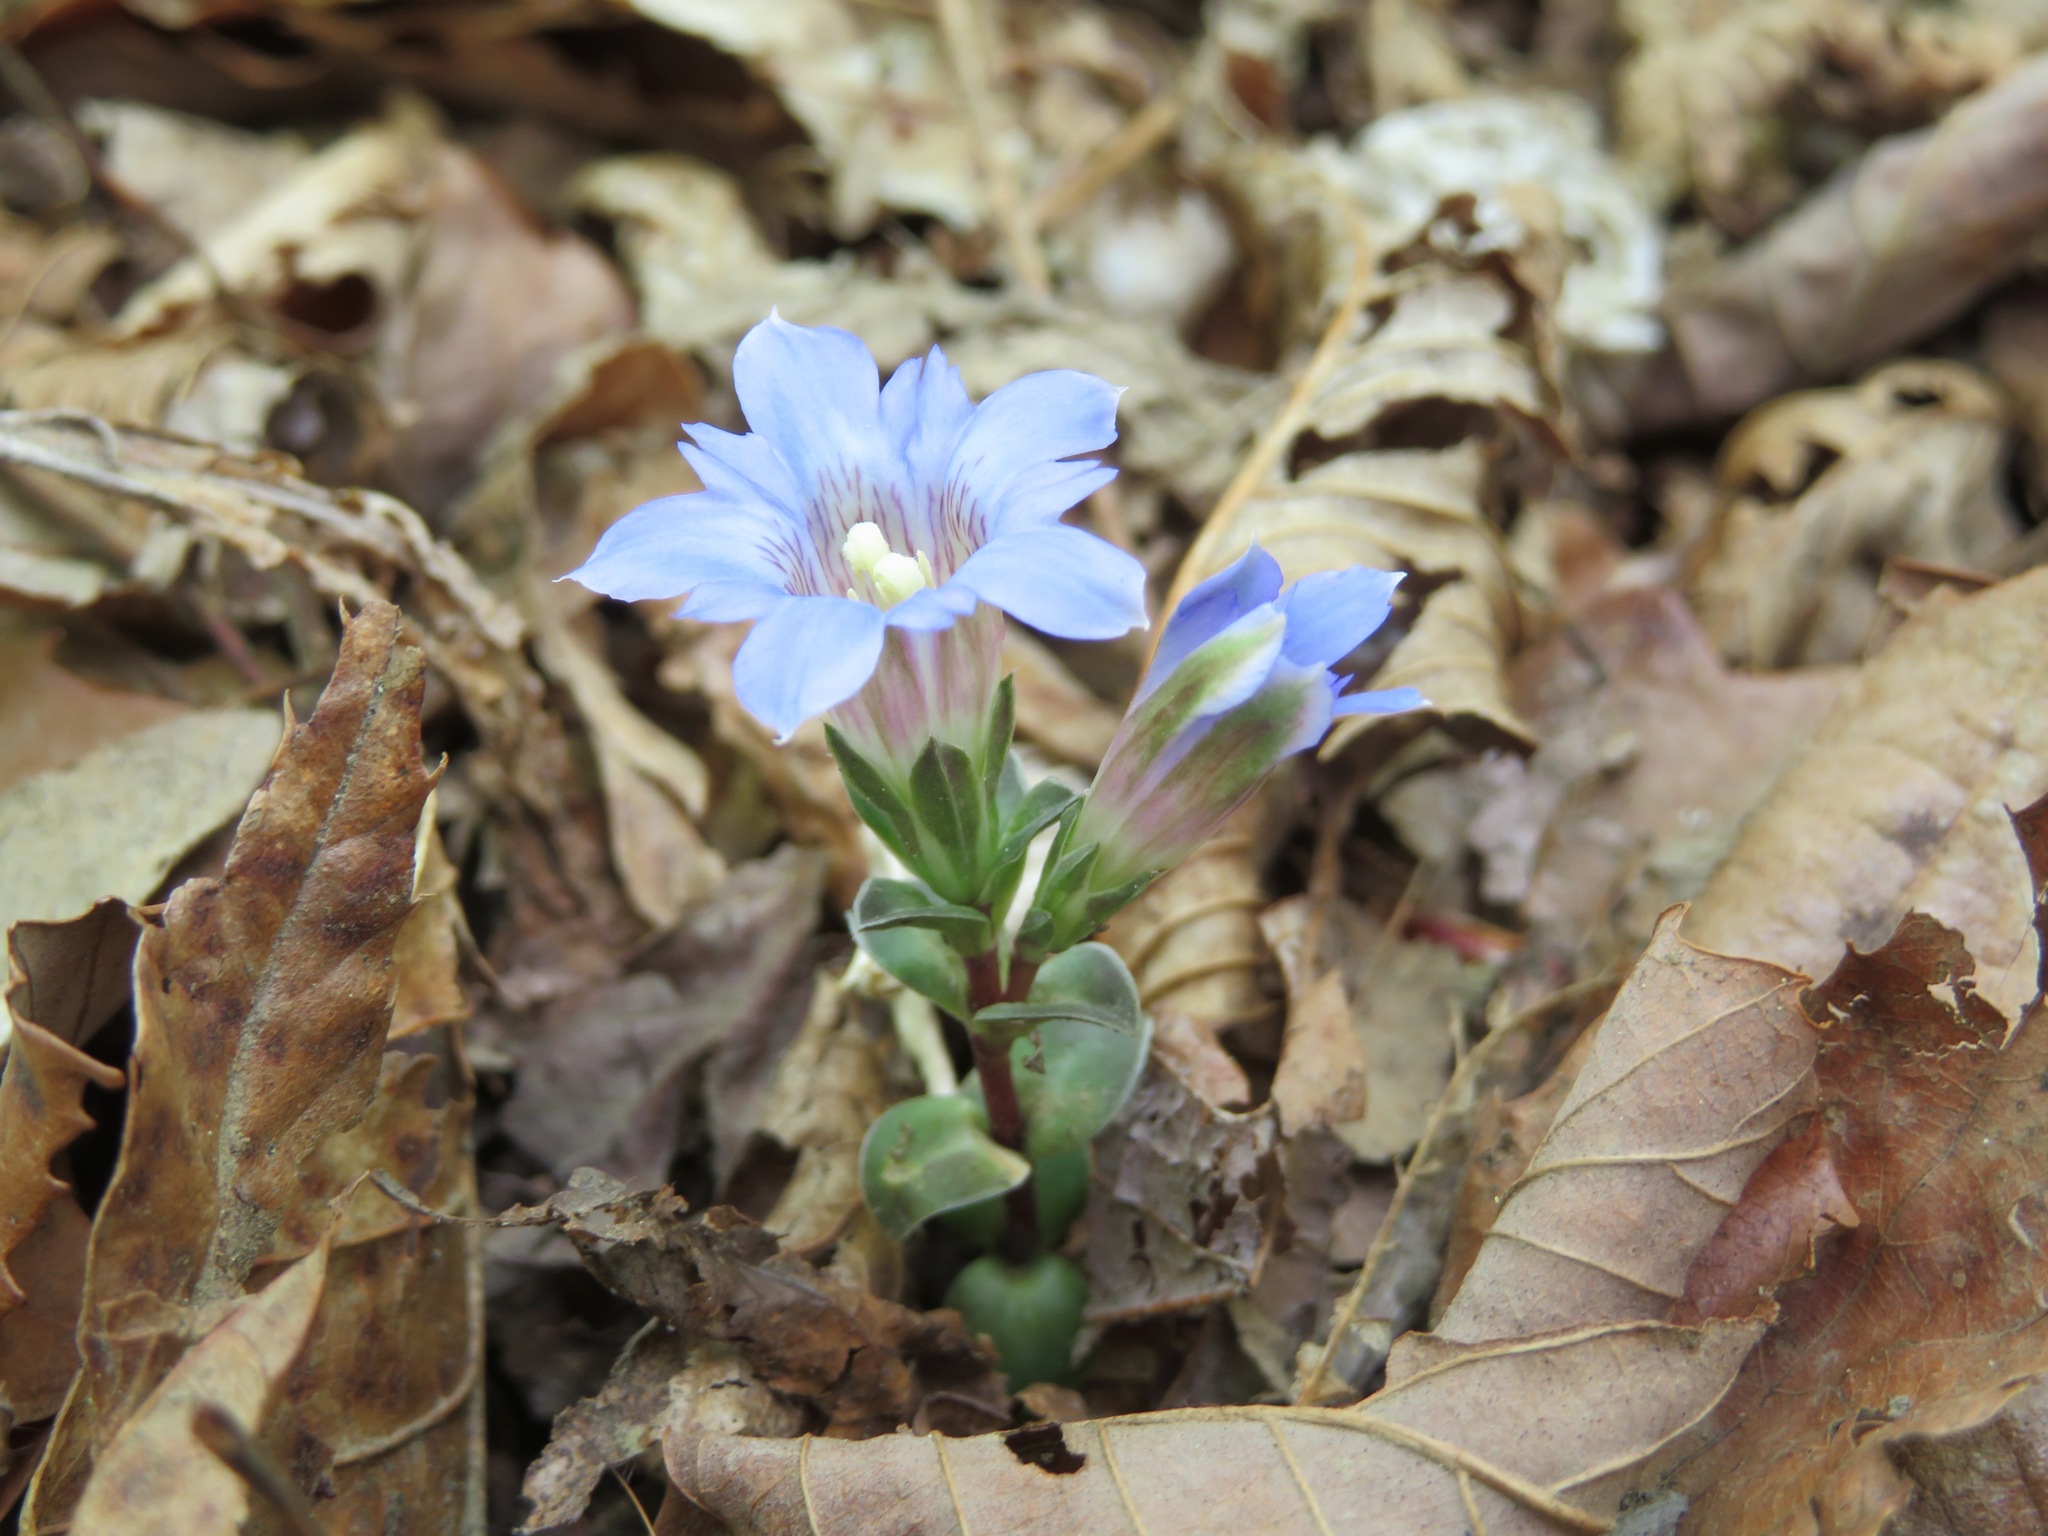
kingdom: Plantae
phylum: Tracheophyta
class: Magnoliopsida
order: Gentianales
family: Gentianaceae
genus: Gentiana
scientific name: Gentiana zollingeri
